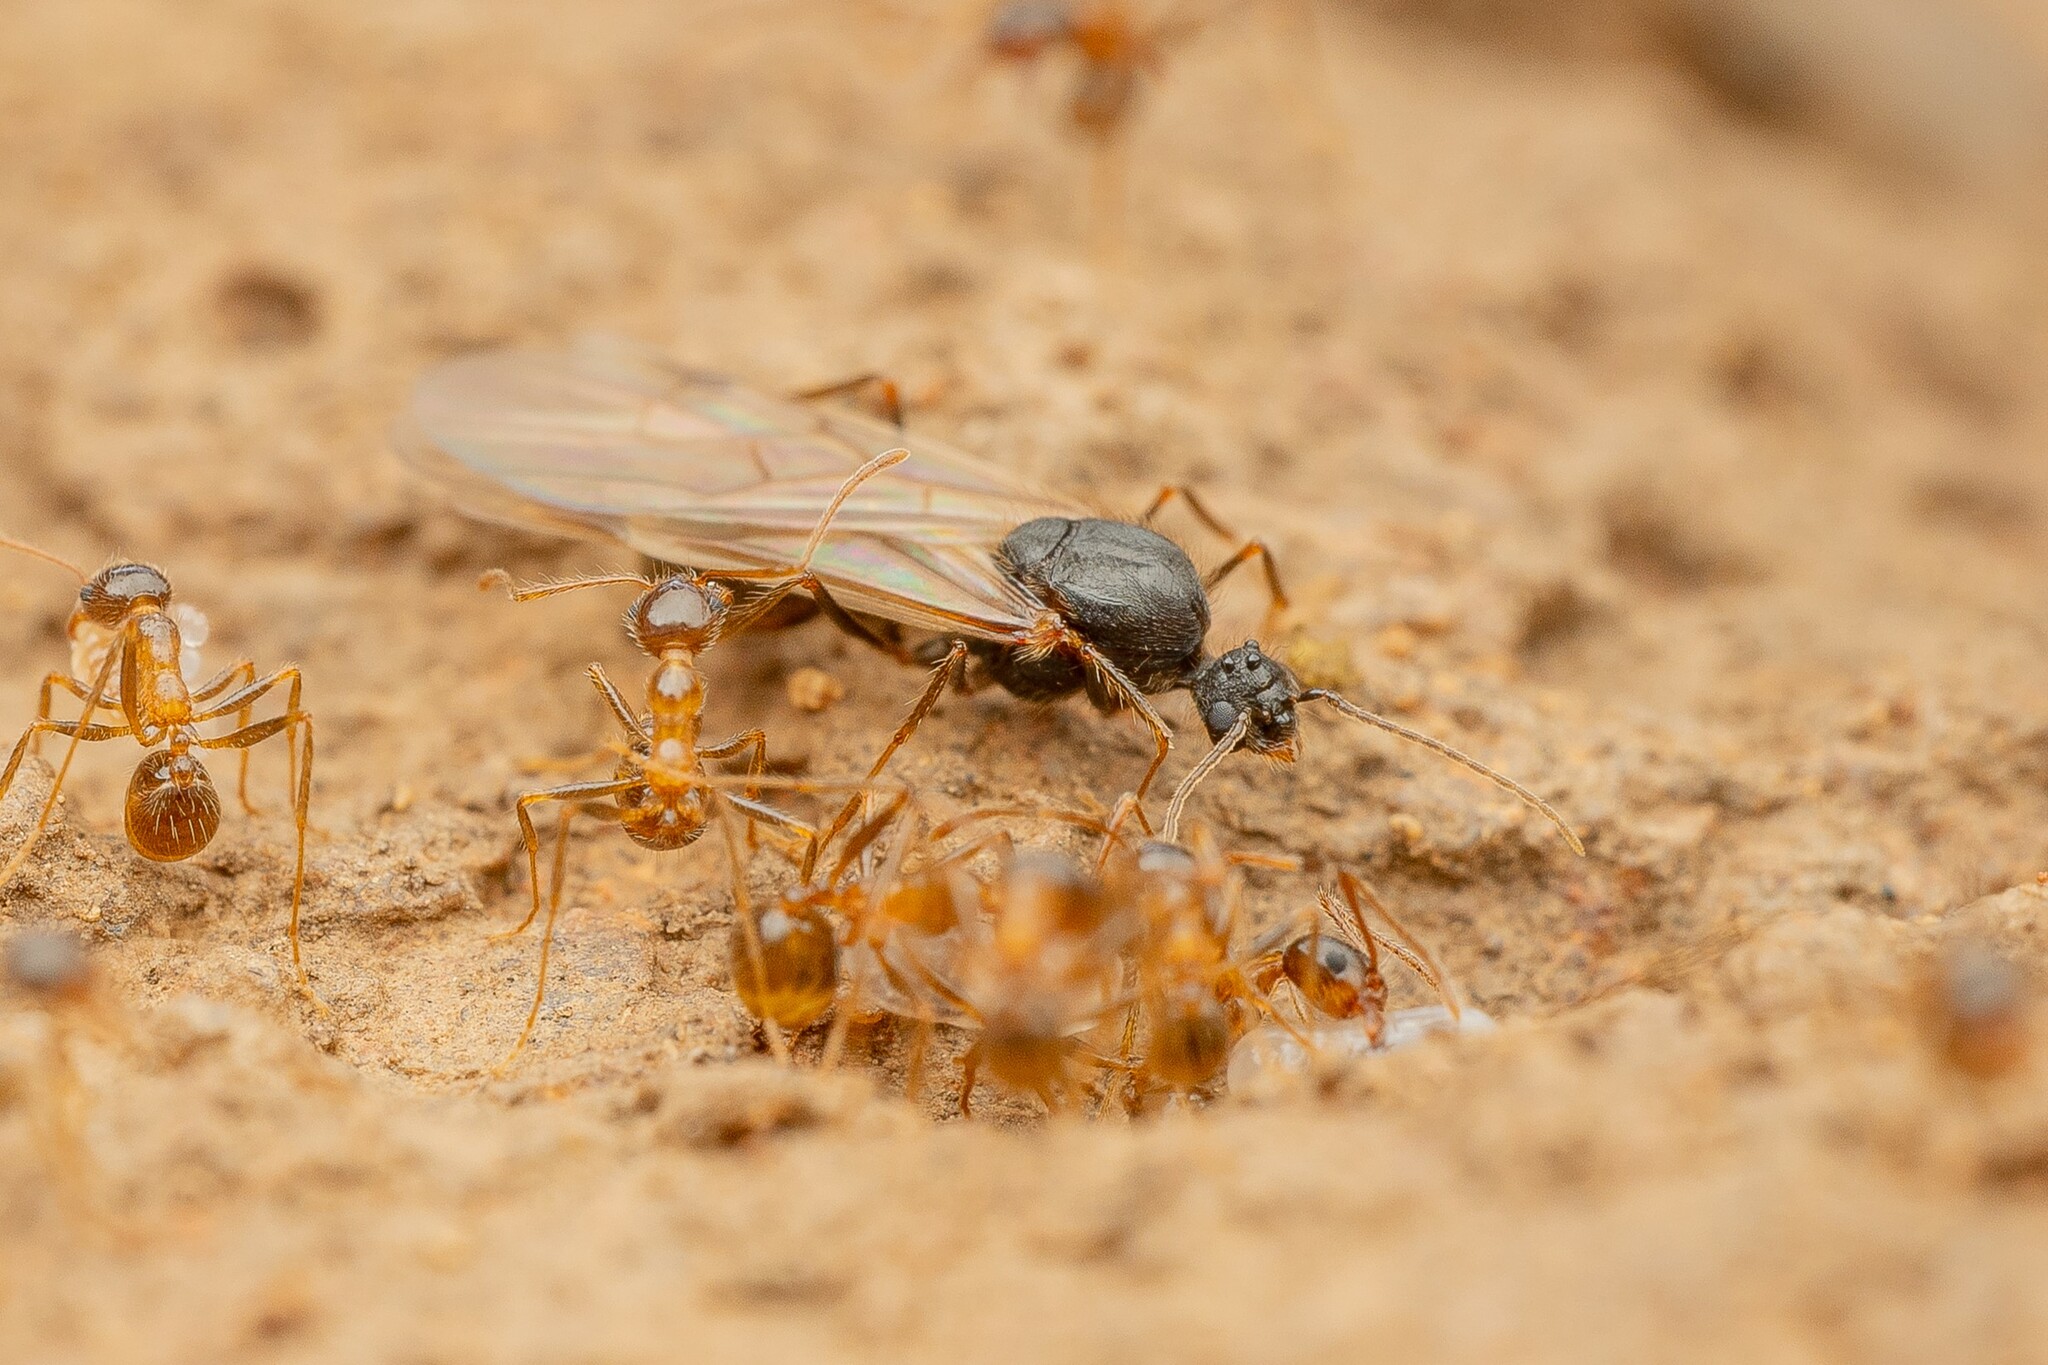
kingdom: Animalia
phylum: Arthropoda
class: Insecta
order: Hymenoptera
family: Formicidae
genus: Pheidole
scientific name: Pheidole obtusospinosa
